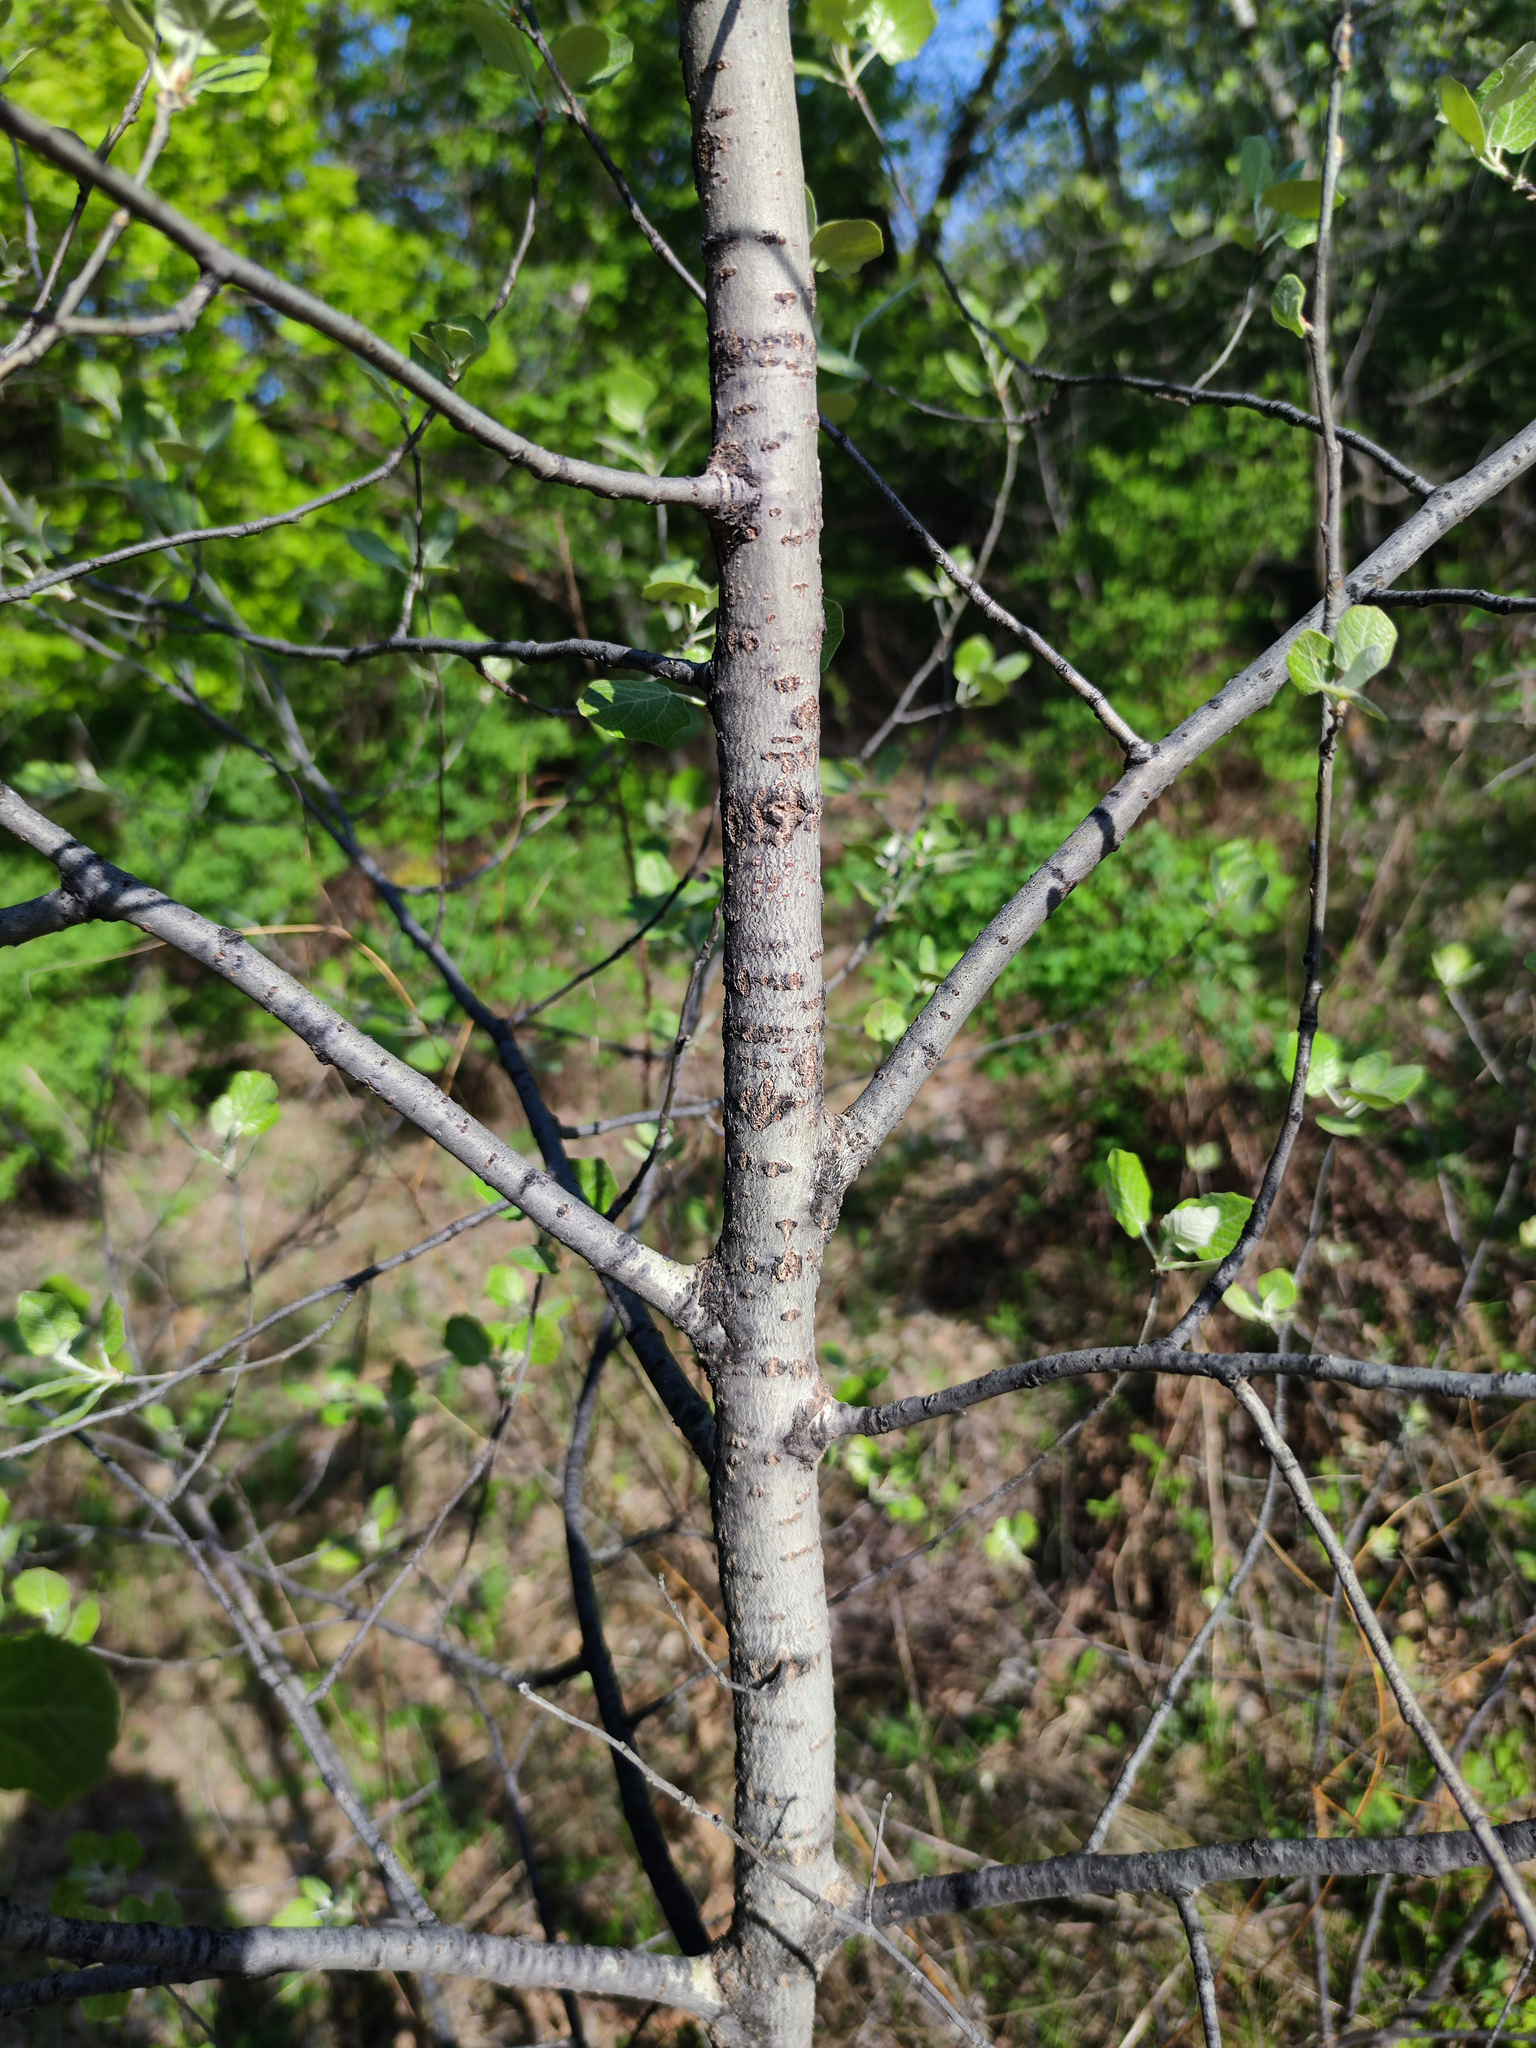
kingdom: Plantae
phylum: Tracheophyta
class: Magnoliopsida
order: Malpighiales
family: Salicaceae
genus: Populus
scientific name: Populus alba
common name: White poplar
